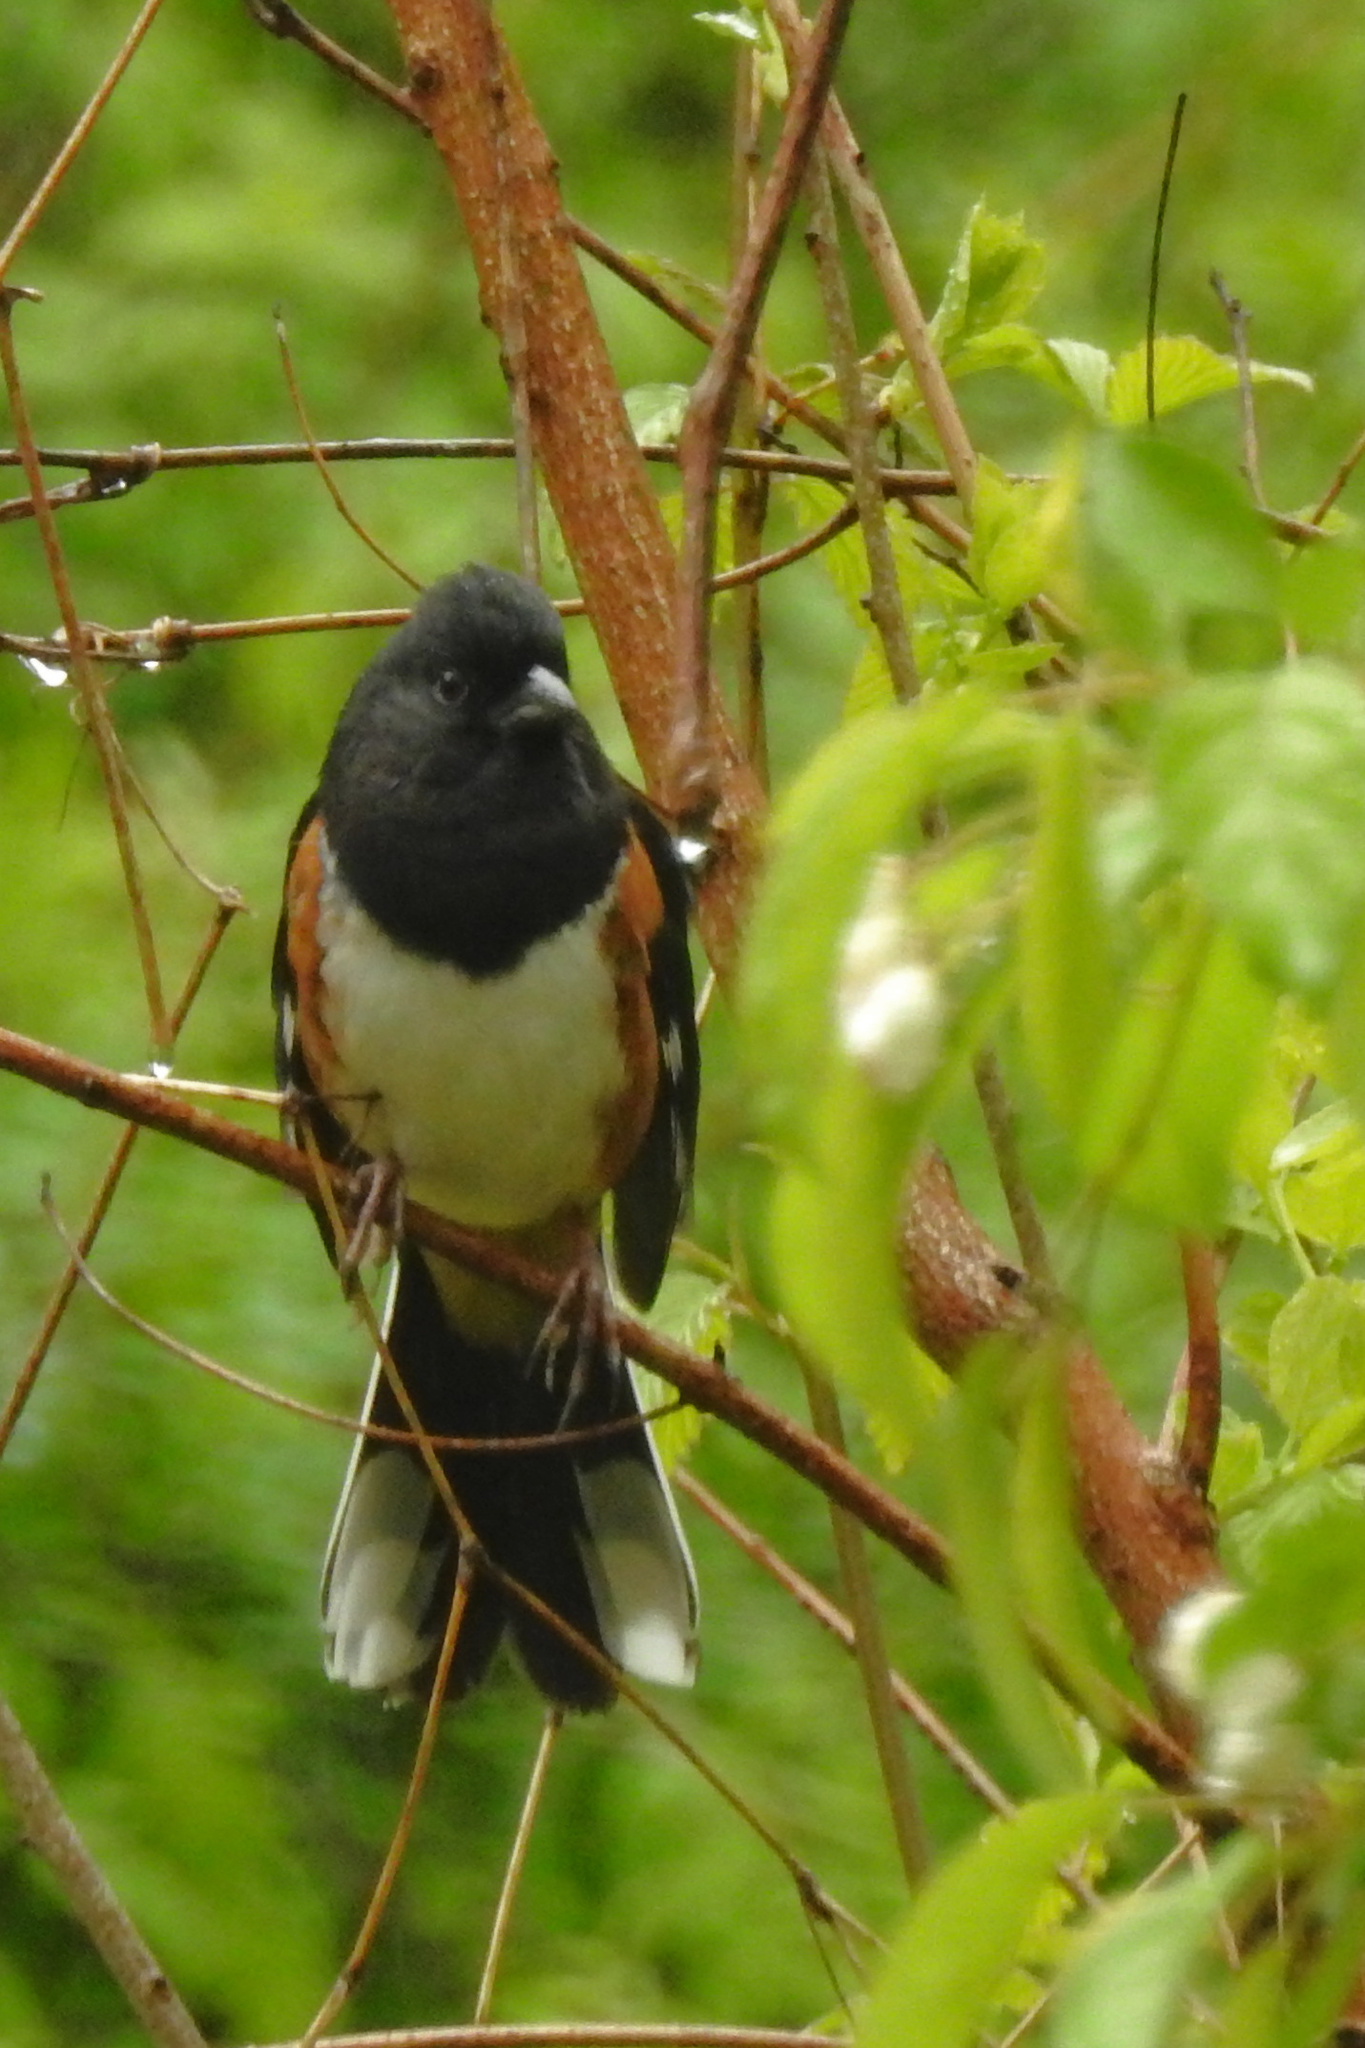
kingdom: Animalia
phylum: Chordata
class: Aves
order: Passeriformes
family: Passerellidae
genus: Pipilo
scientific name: Pipilo erythrophthalmus
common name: Eastern towhee
